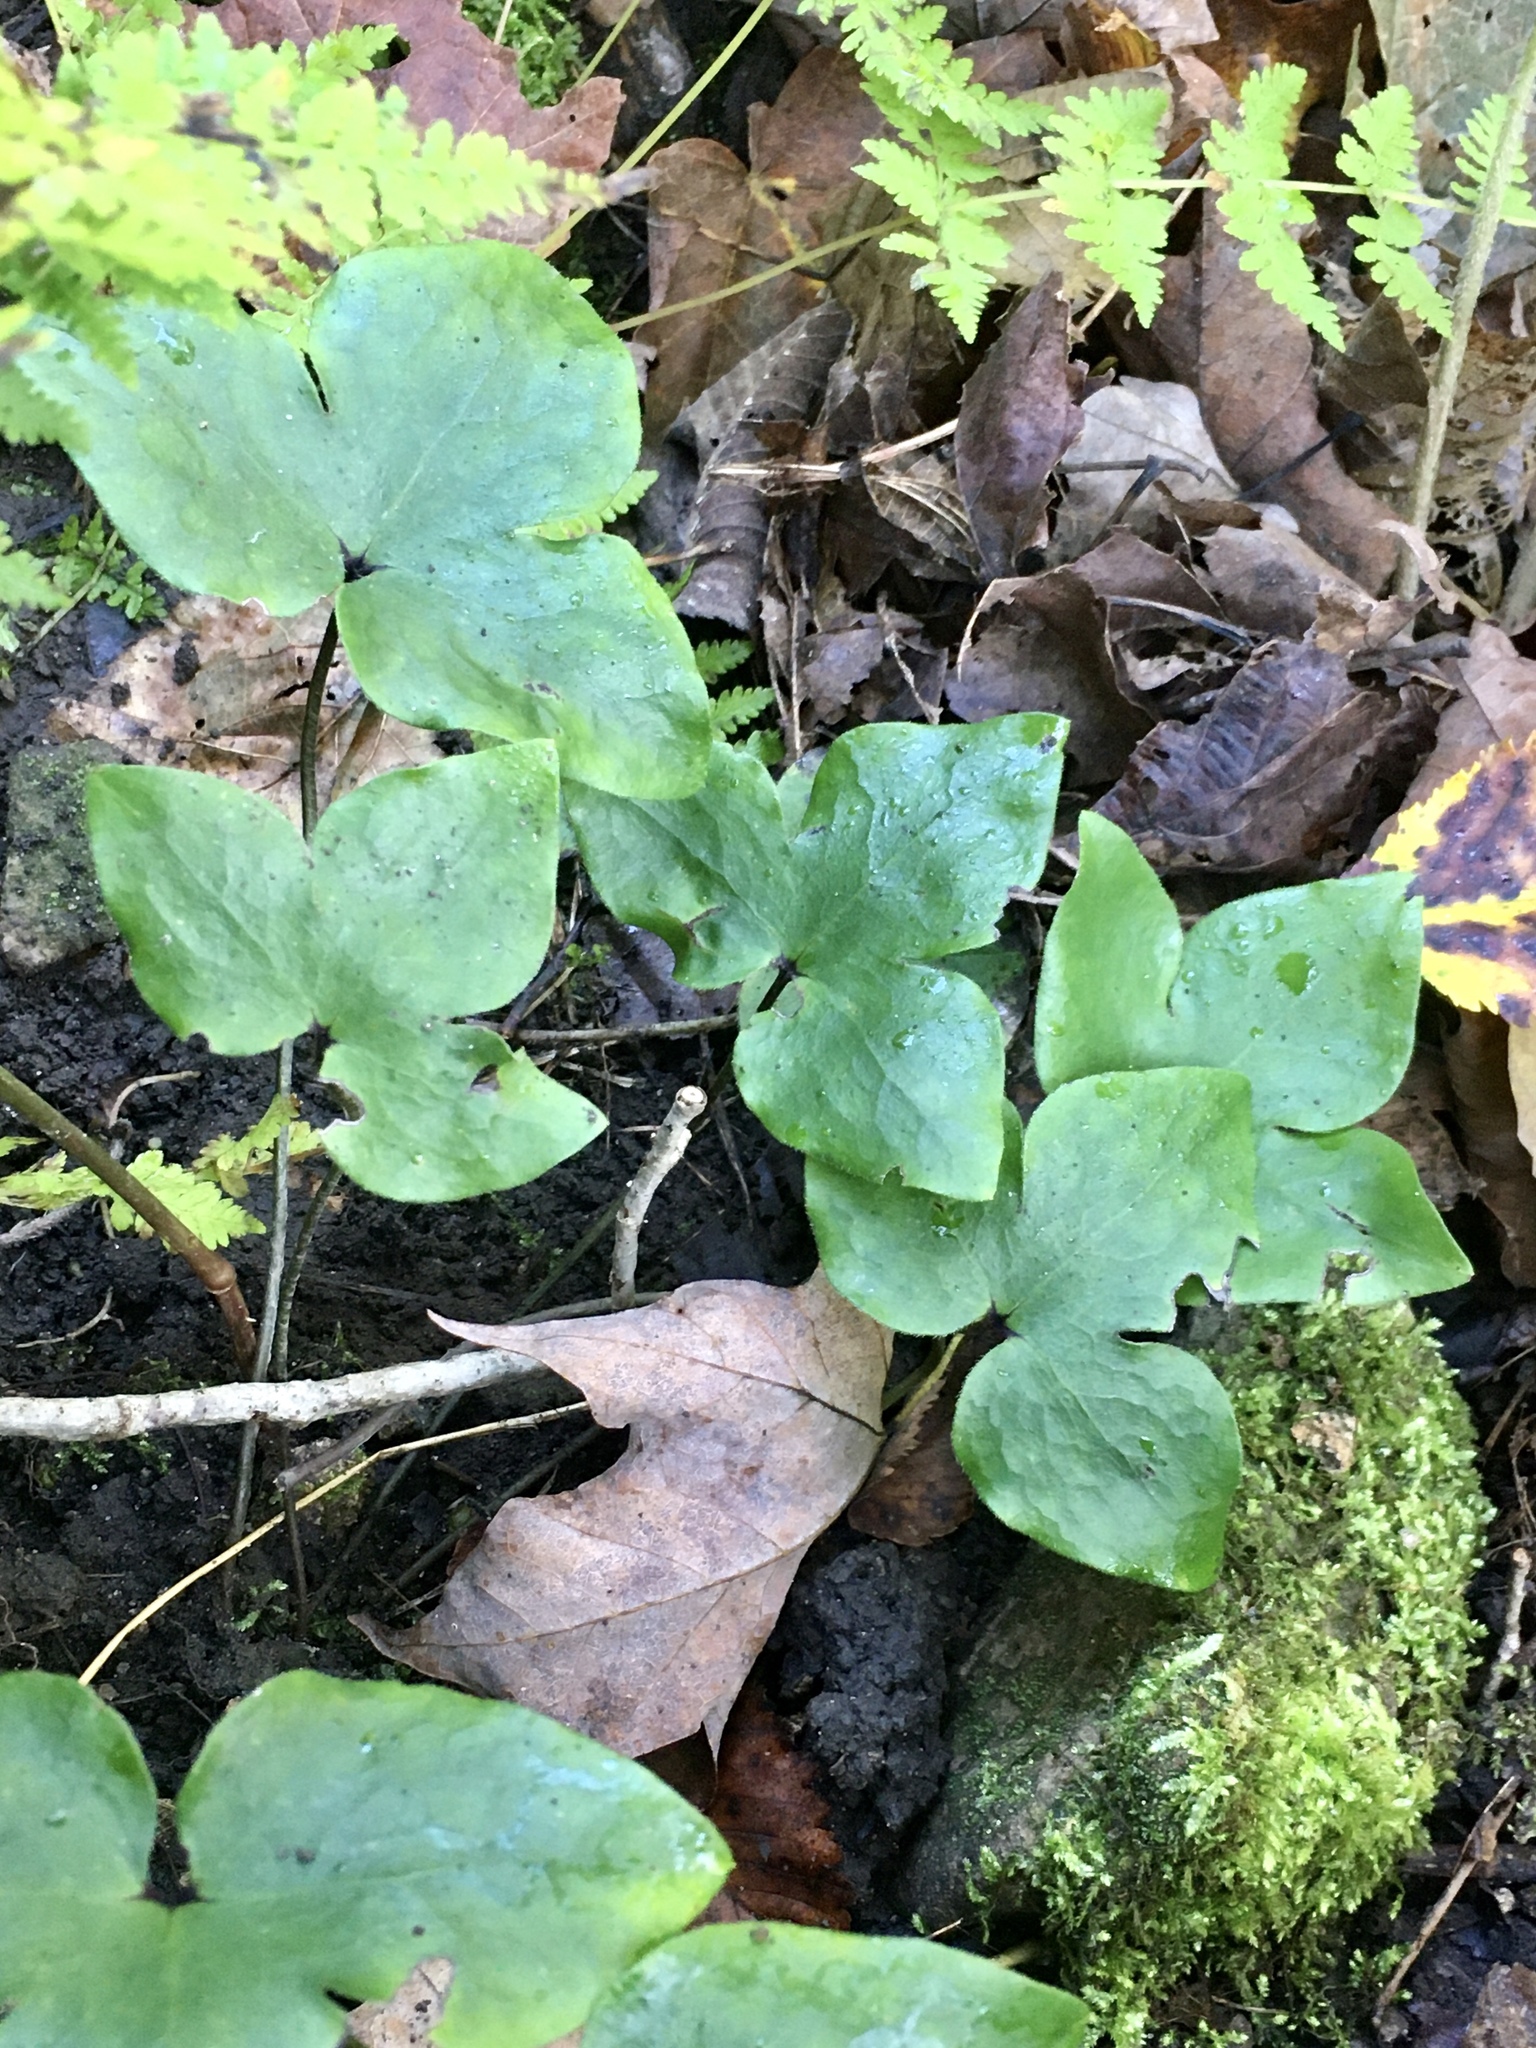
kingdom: Plantae
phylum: Tracheophyta
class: Magnoliopsida
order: Ranunculales
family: Ranunculaceae
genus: Hepatica
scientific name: Hepatica acutiloba
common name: Sharp-lobed hepatica
